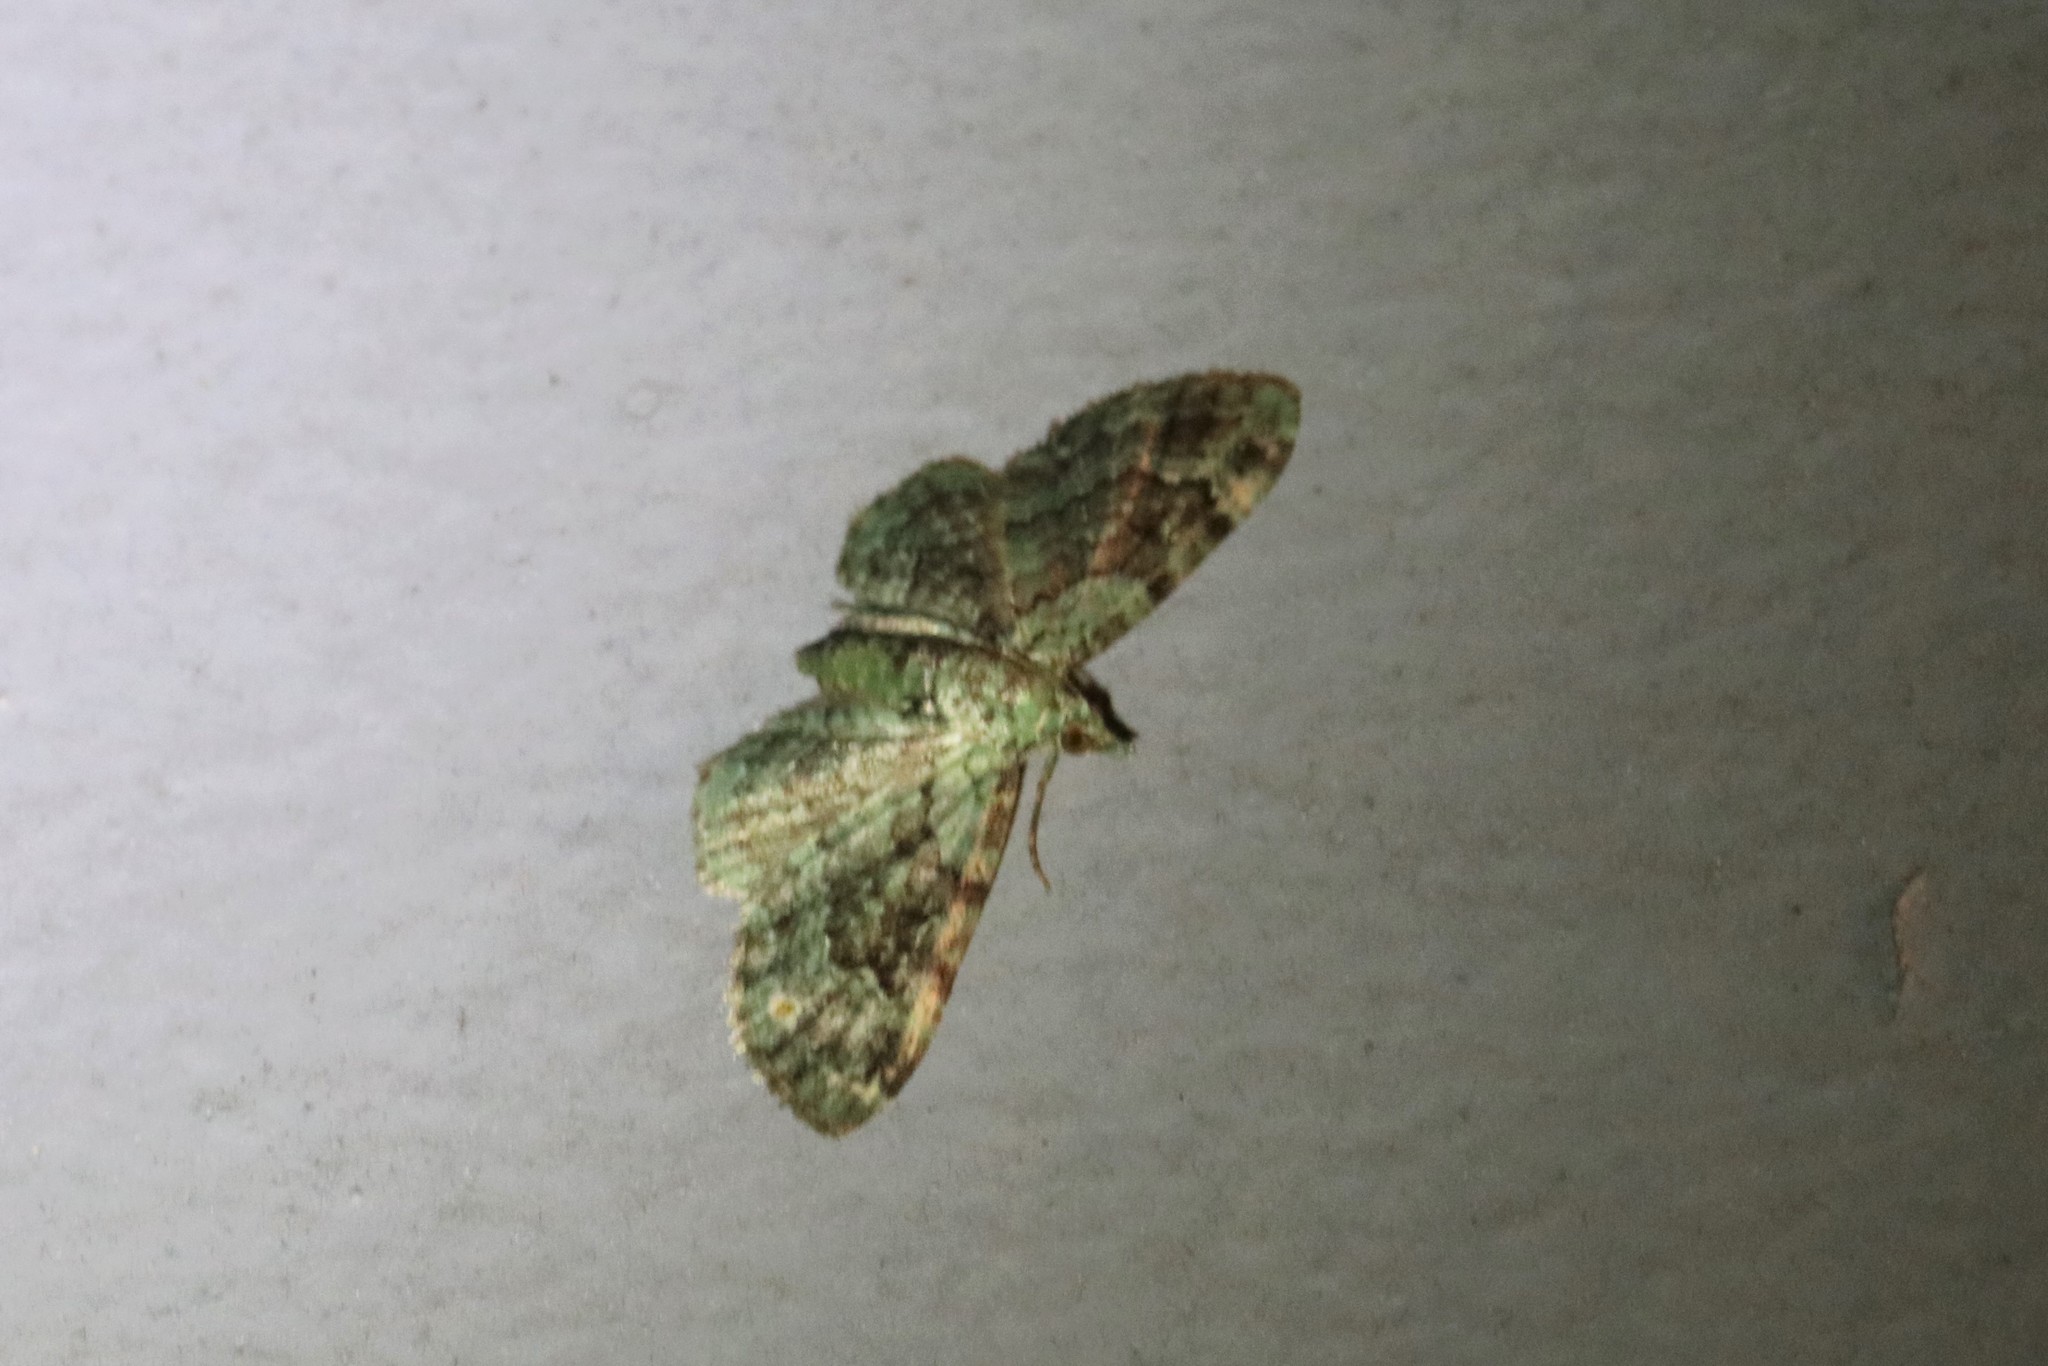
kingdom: Animalia
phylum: Arthropoda
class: Insecta
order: Lepidoptera
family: Geometridae
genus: Pasiphila
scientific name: Pasiphila rectangulata
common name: Green pug
